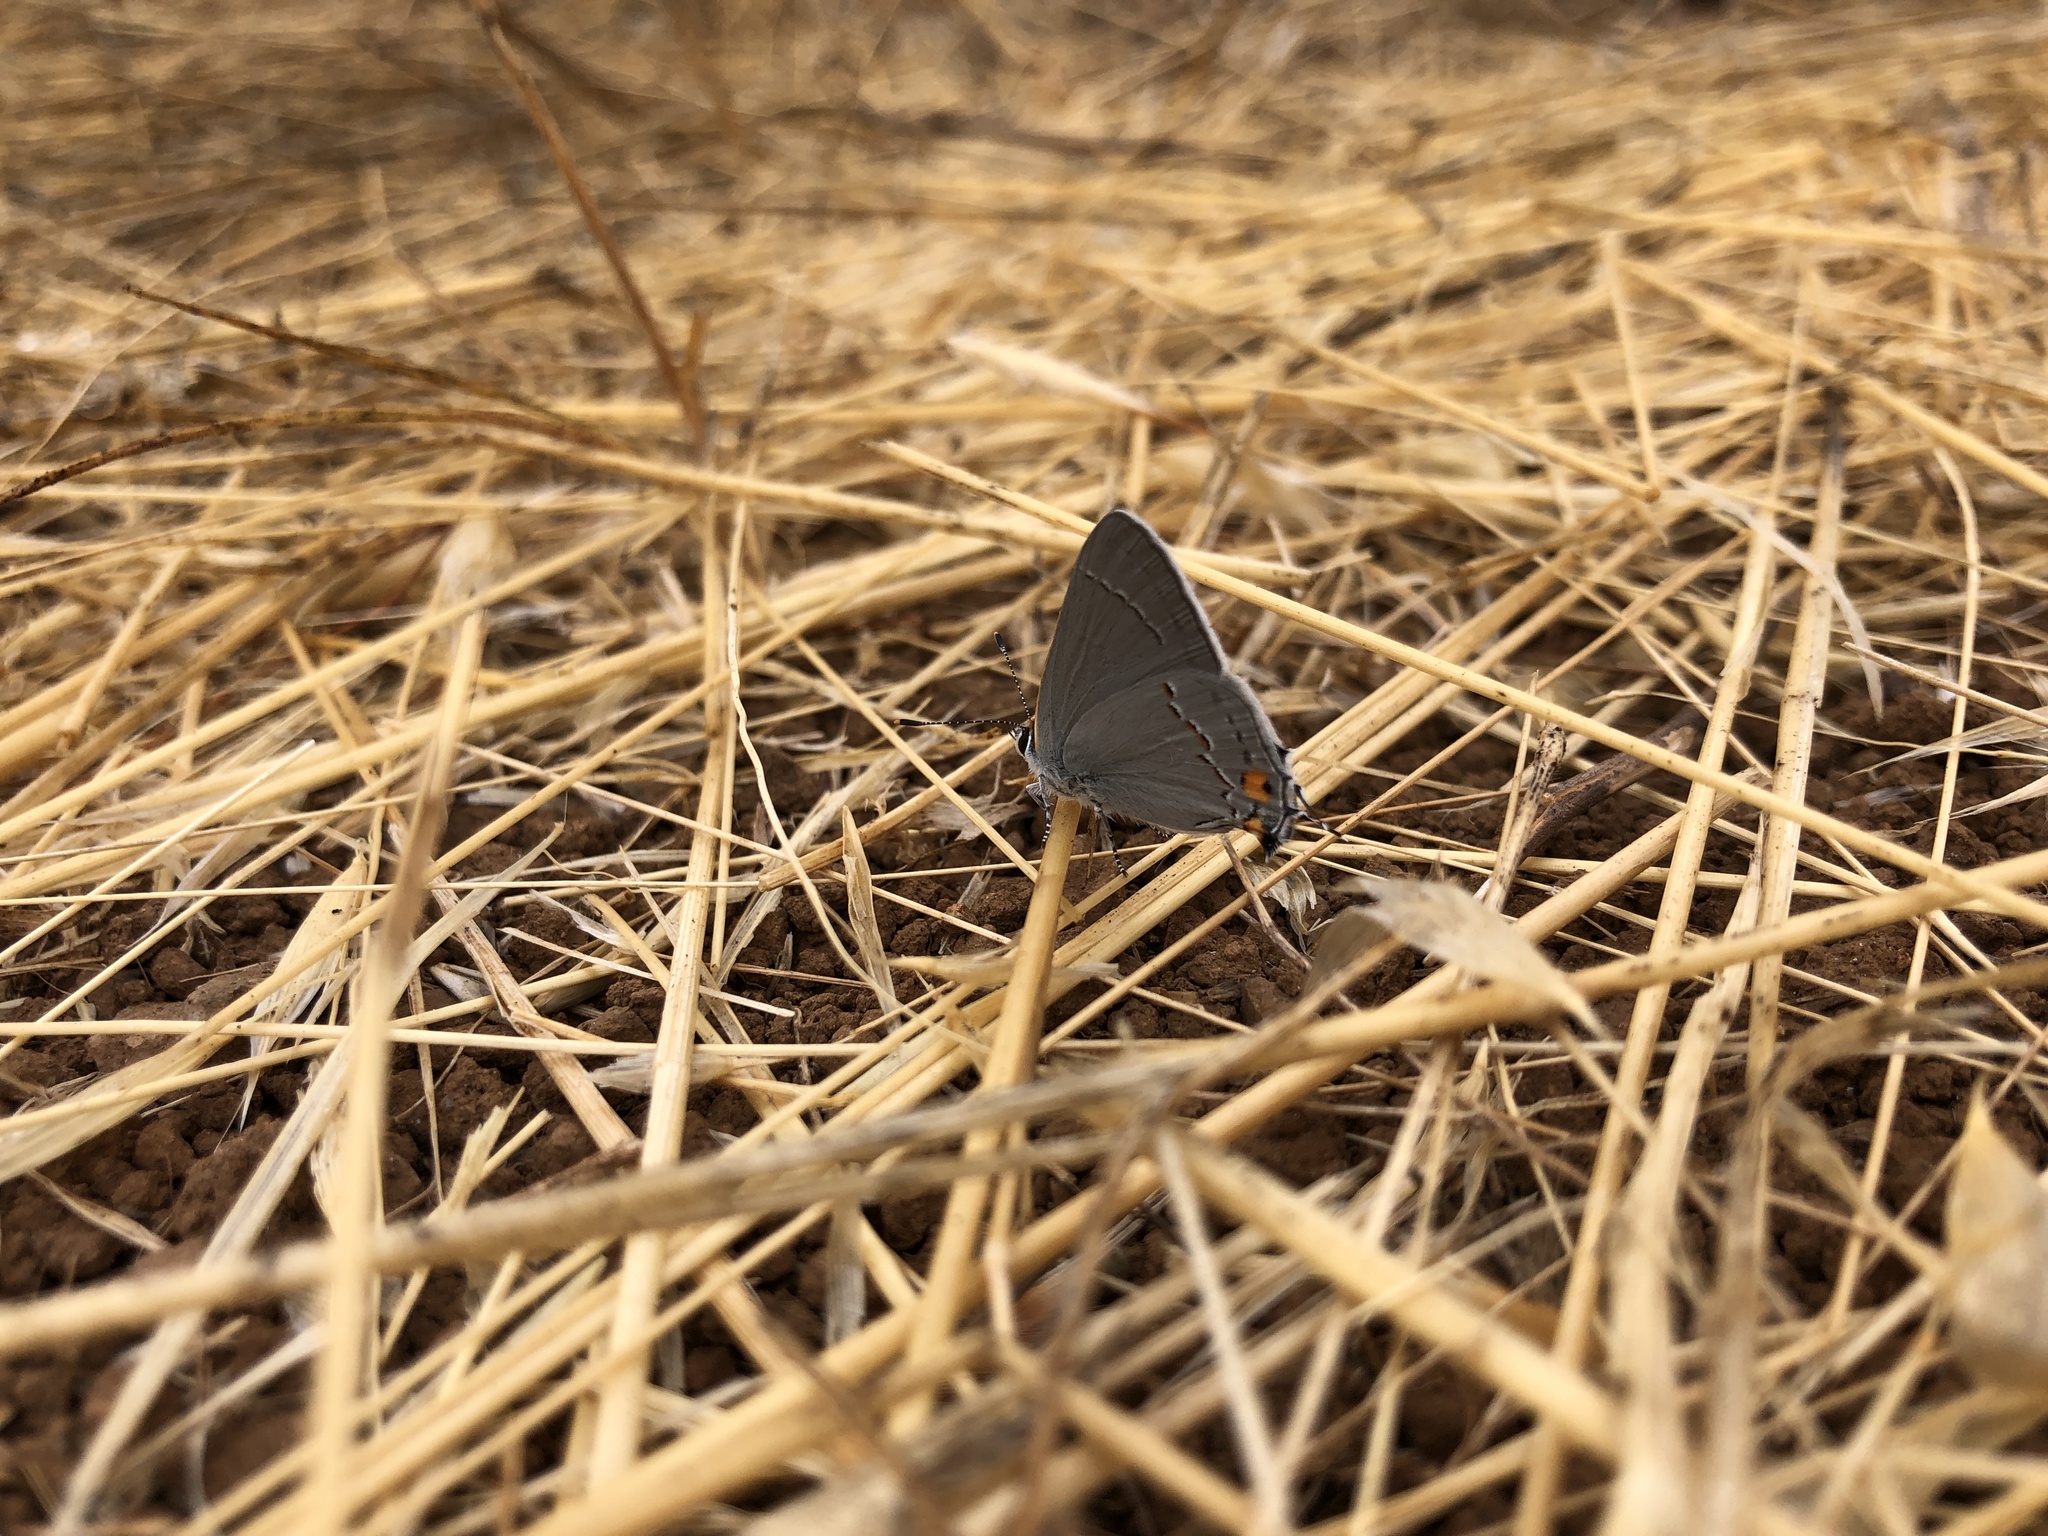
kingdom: Animalia
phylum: Arthropoda
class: Insecta
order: Lepidoptera
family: Lycaenidae
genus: Strymon
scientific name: Strymon melinus
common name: Gray hairstreak
